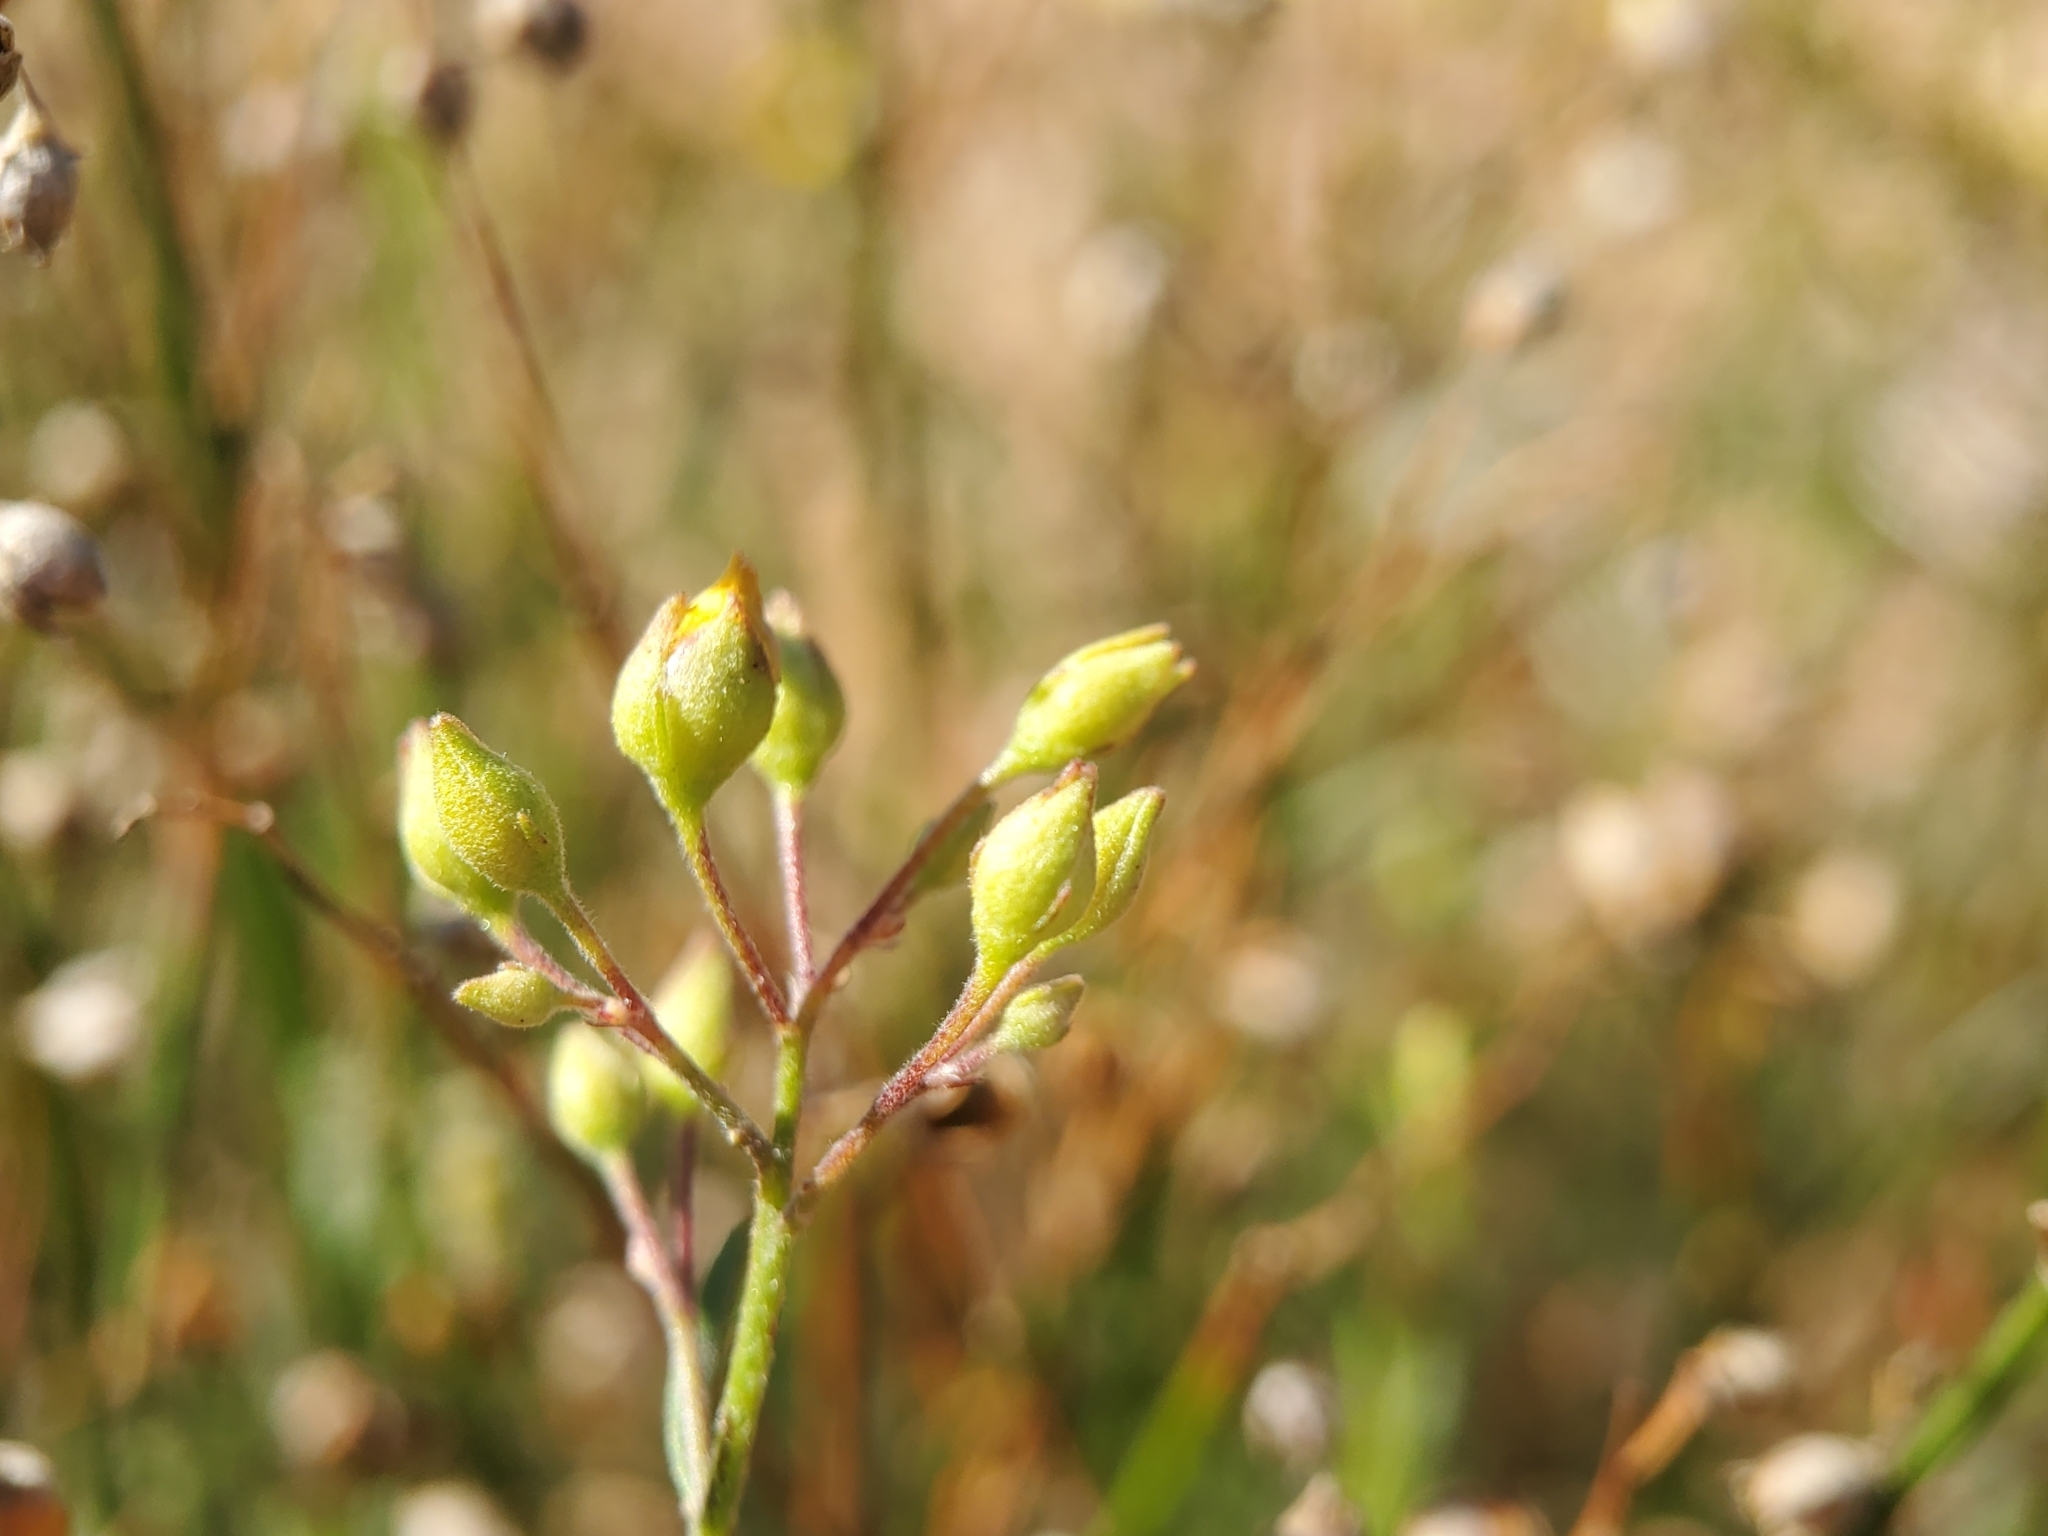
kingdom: Plantae
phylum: Tracheophyta
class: Magnoliopsida
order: Malvales
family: Cistaceae
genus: Crocanthemum
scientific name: Crocanthemum scoparium
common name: Broom-rose
